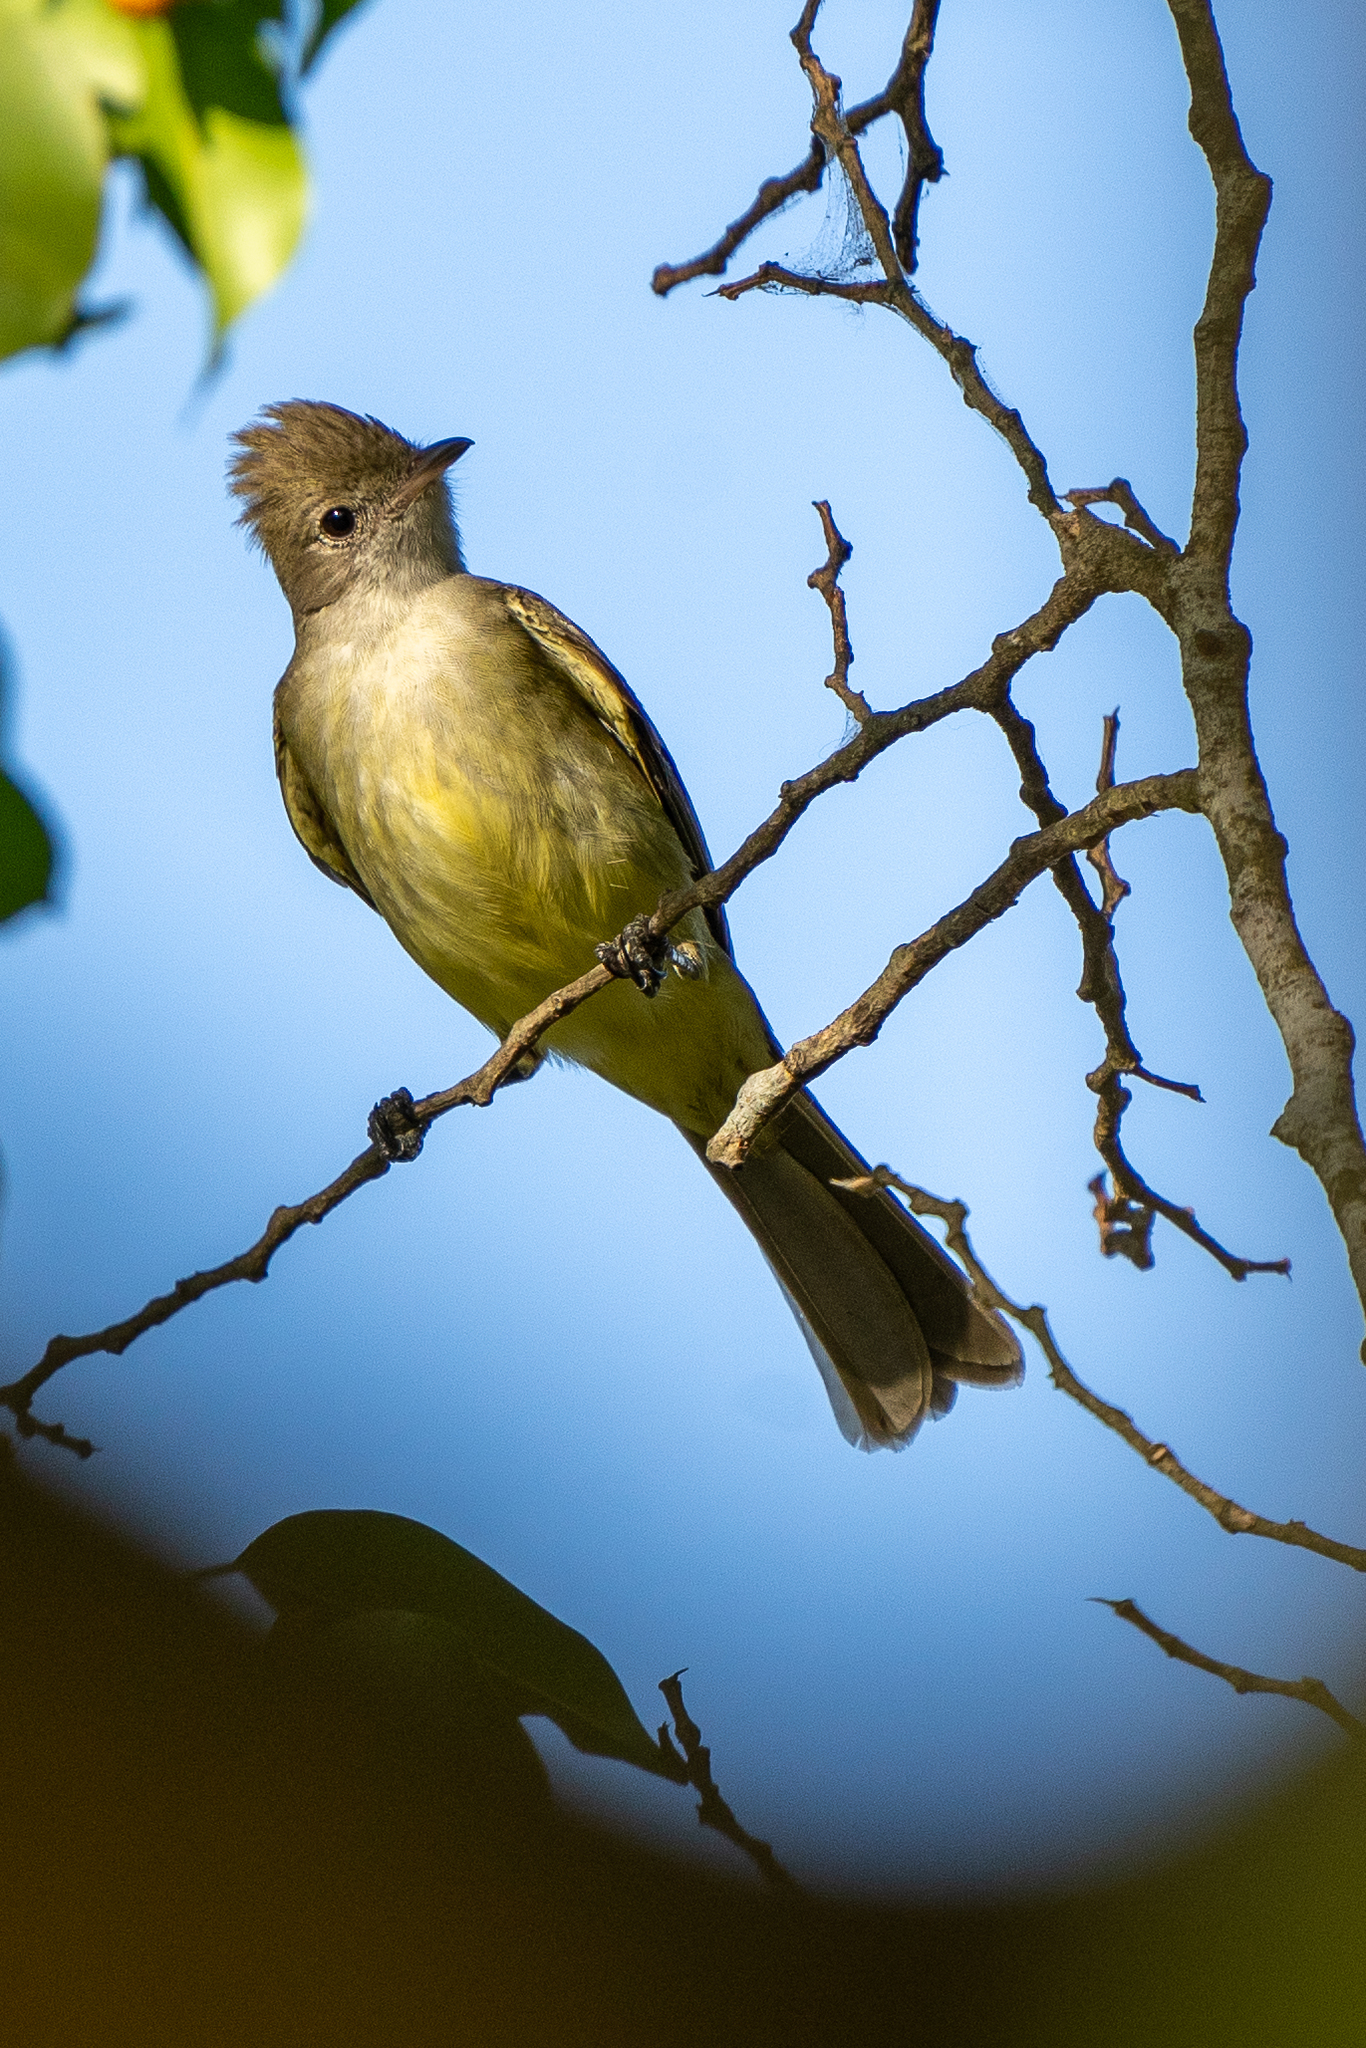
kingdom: Animalia
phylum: Chordata
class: Aves
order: Passeriformes
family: Tyrannidae
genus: Elaenia
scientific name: Elaenia flavogaster
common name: Yellow-bellied elaenia
